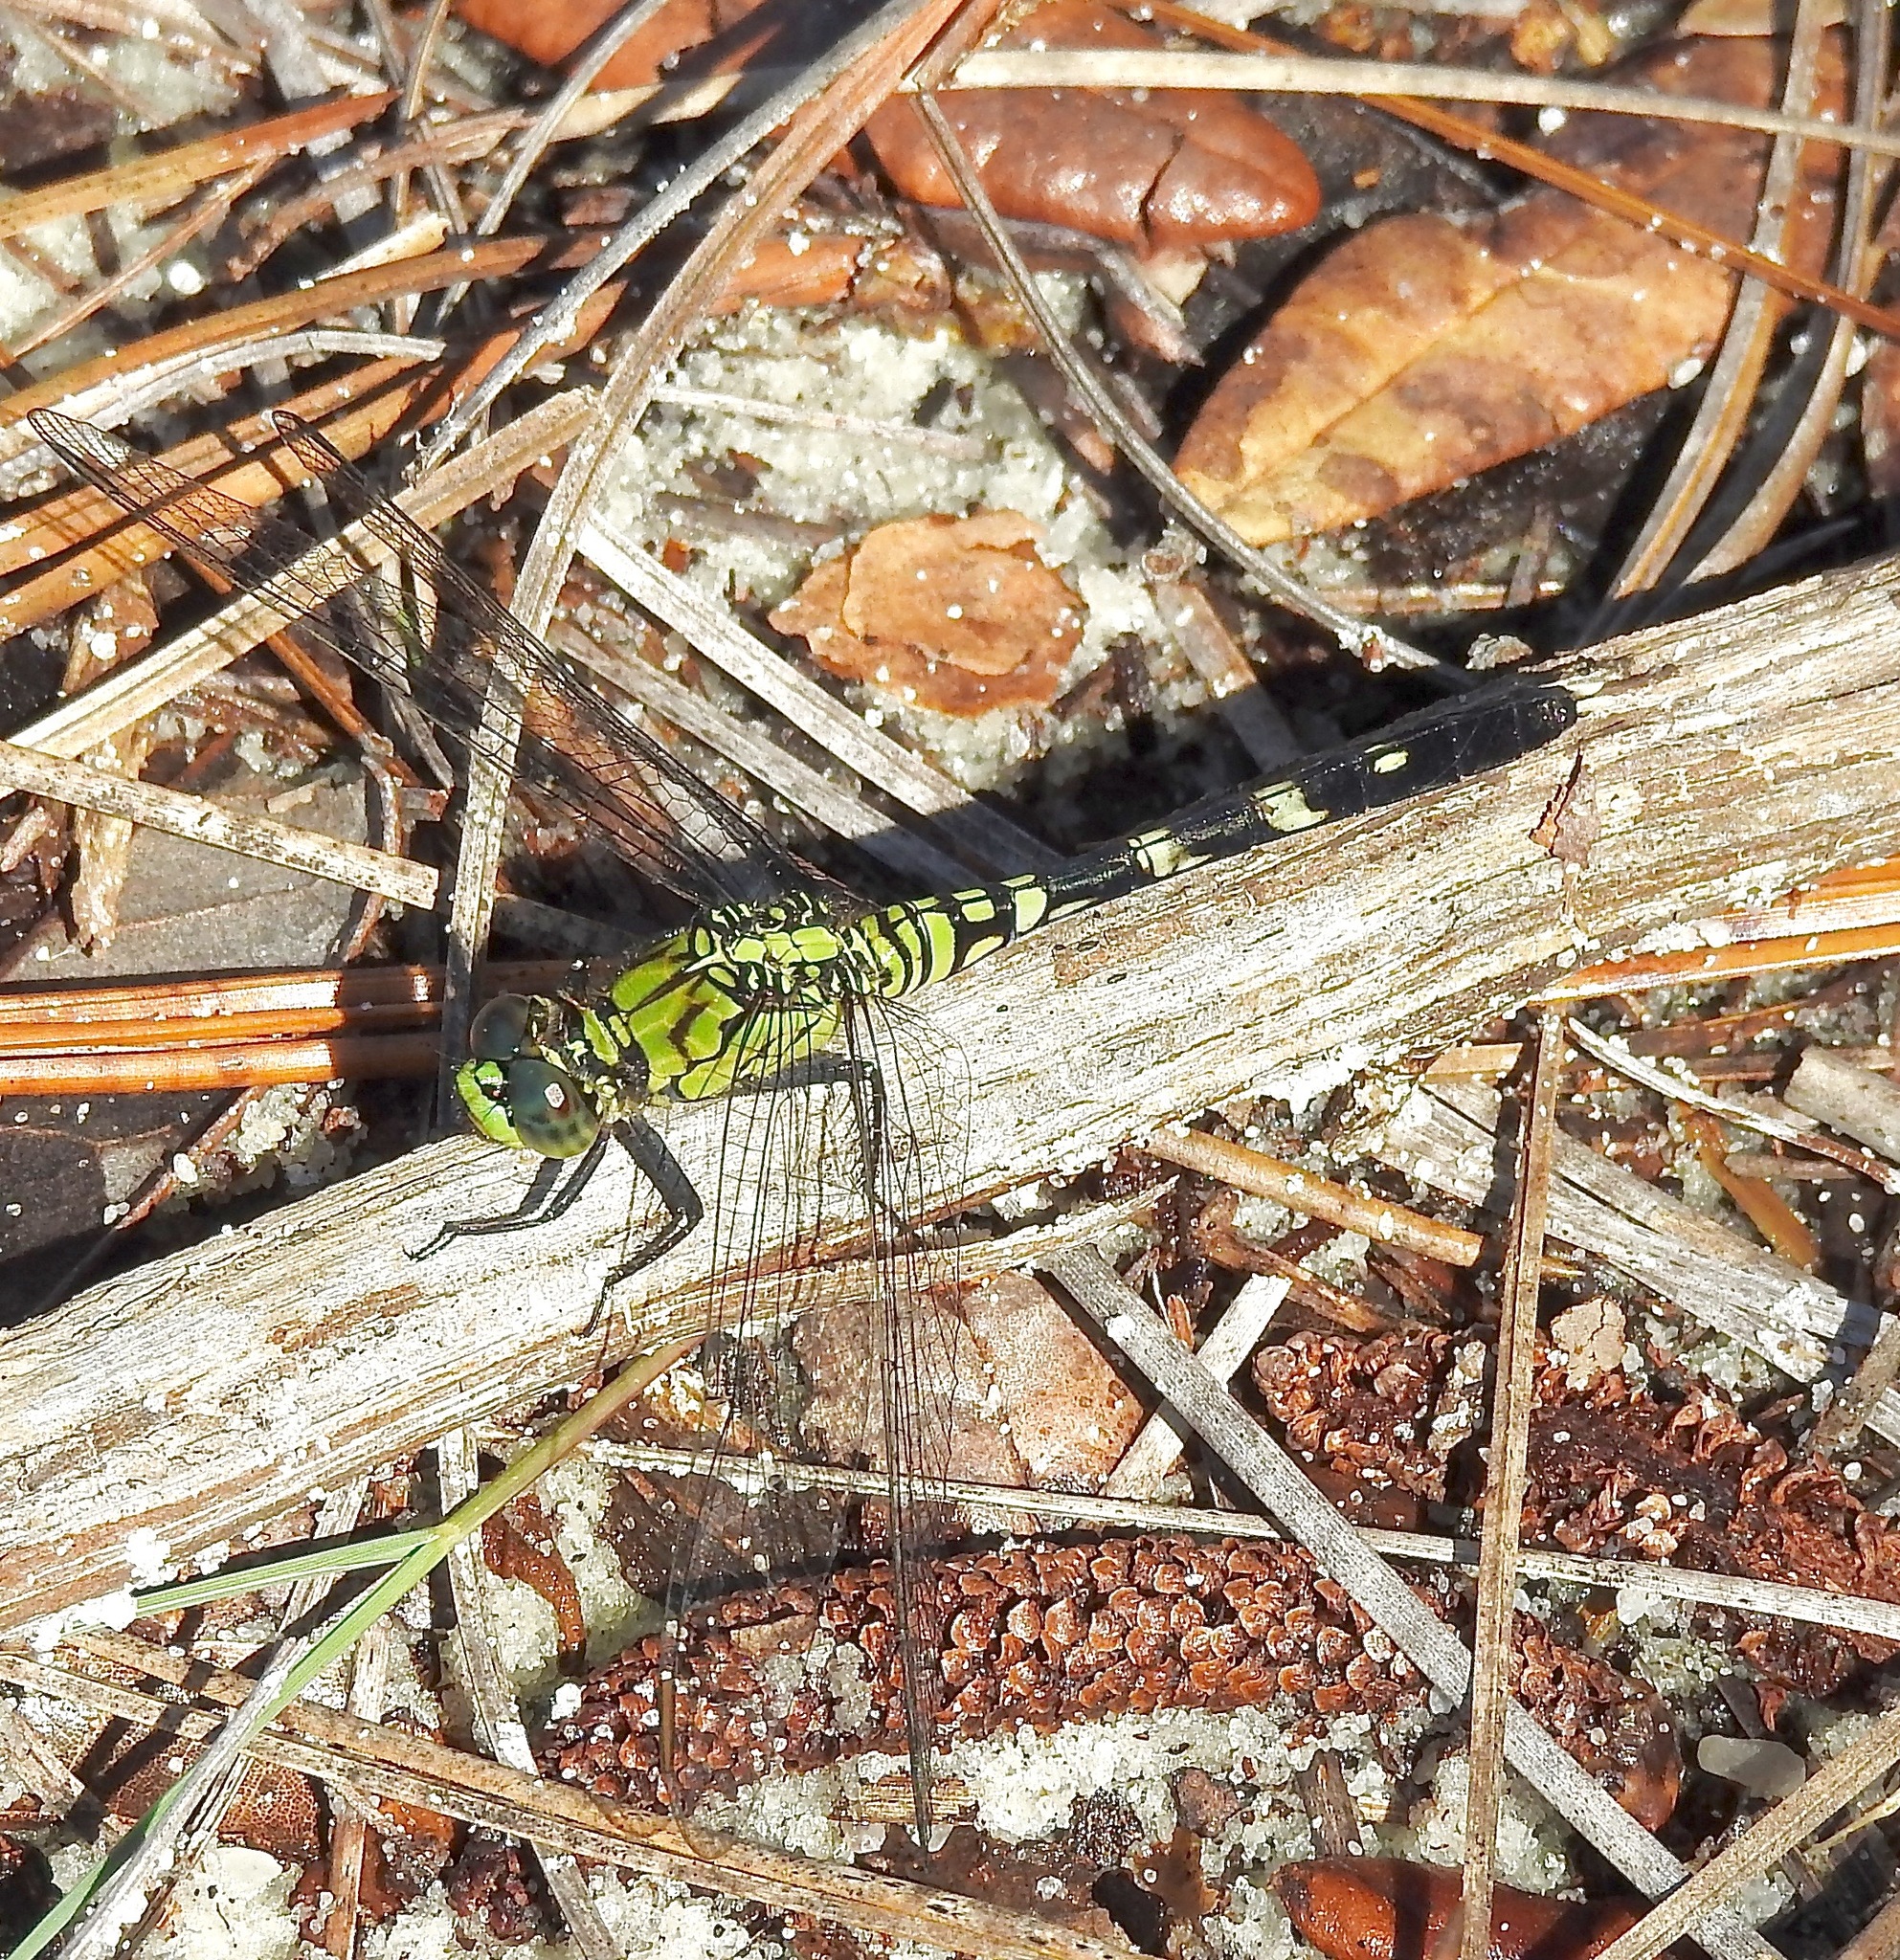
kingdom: Animalia
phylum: Arthropoda
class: Insecta
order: Odonata
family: Libellulidae
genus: Erythemis
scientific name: Erythemis simplicicollis
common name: Eastern pondhawk
